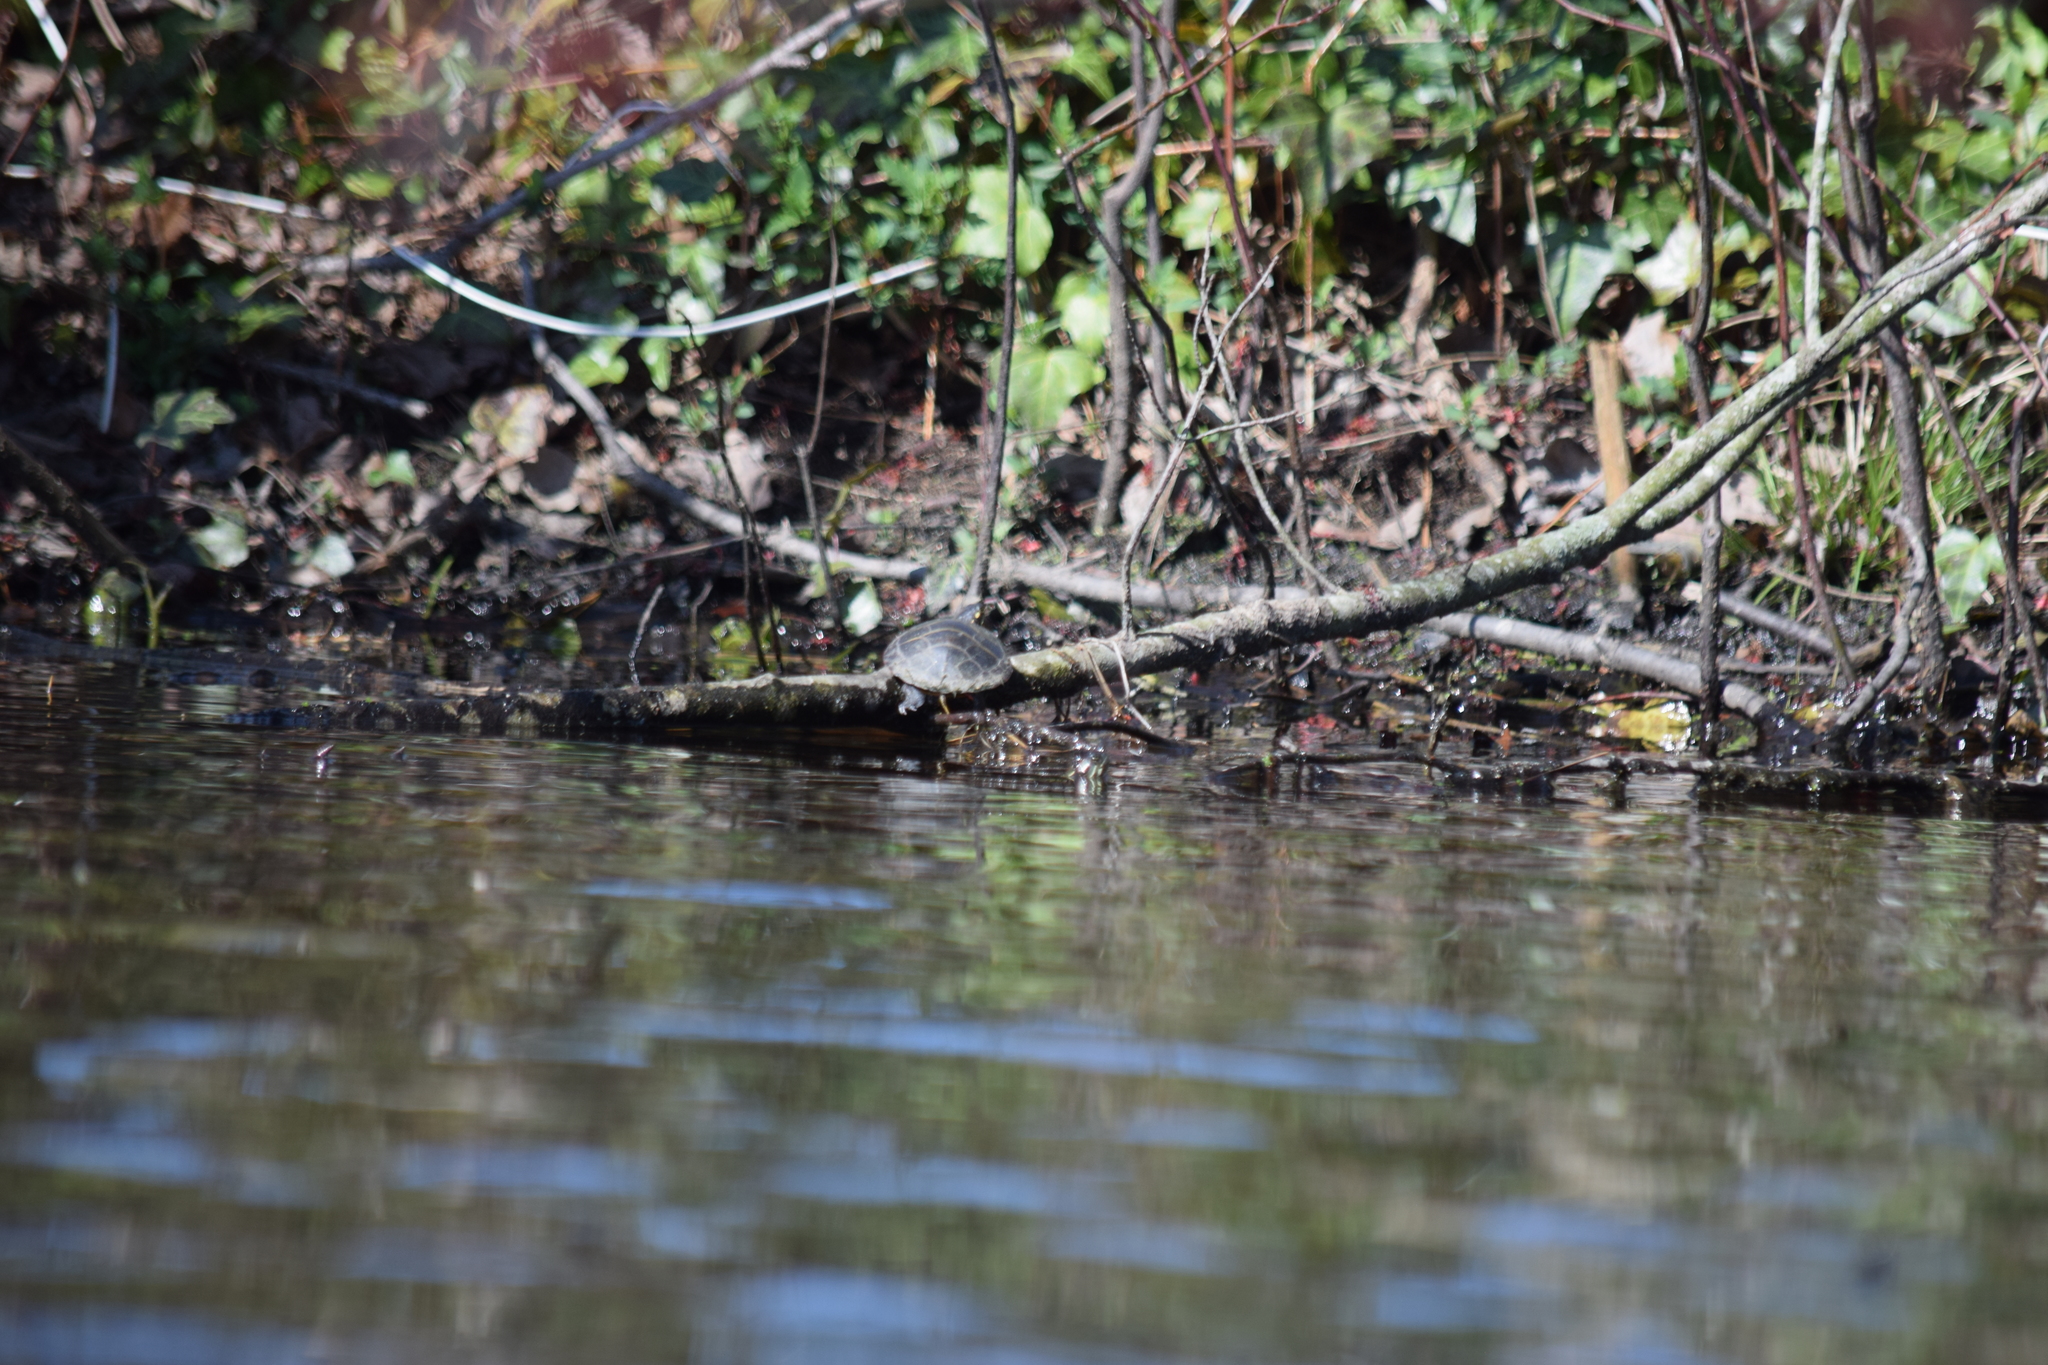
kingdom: Animalia
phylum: Chordata
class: Testudines
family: Emydidae
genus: Chrysemys
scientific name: Chrysemys picta
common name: Painted turtle
